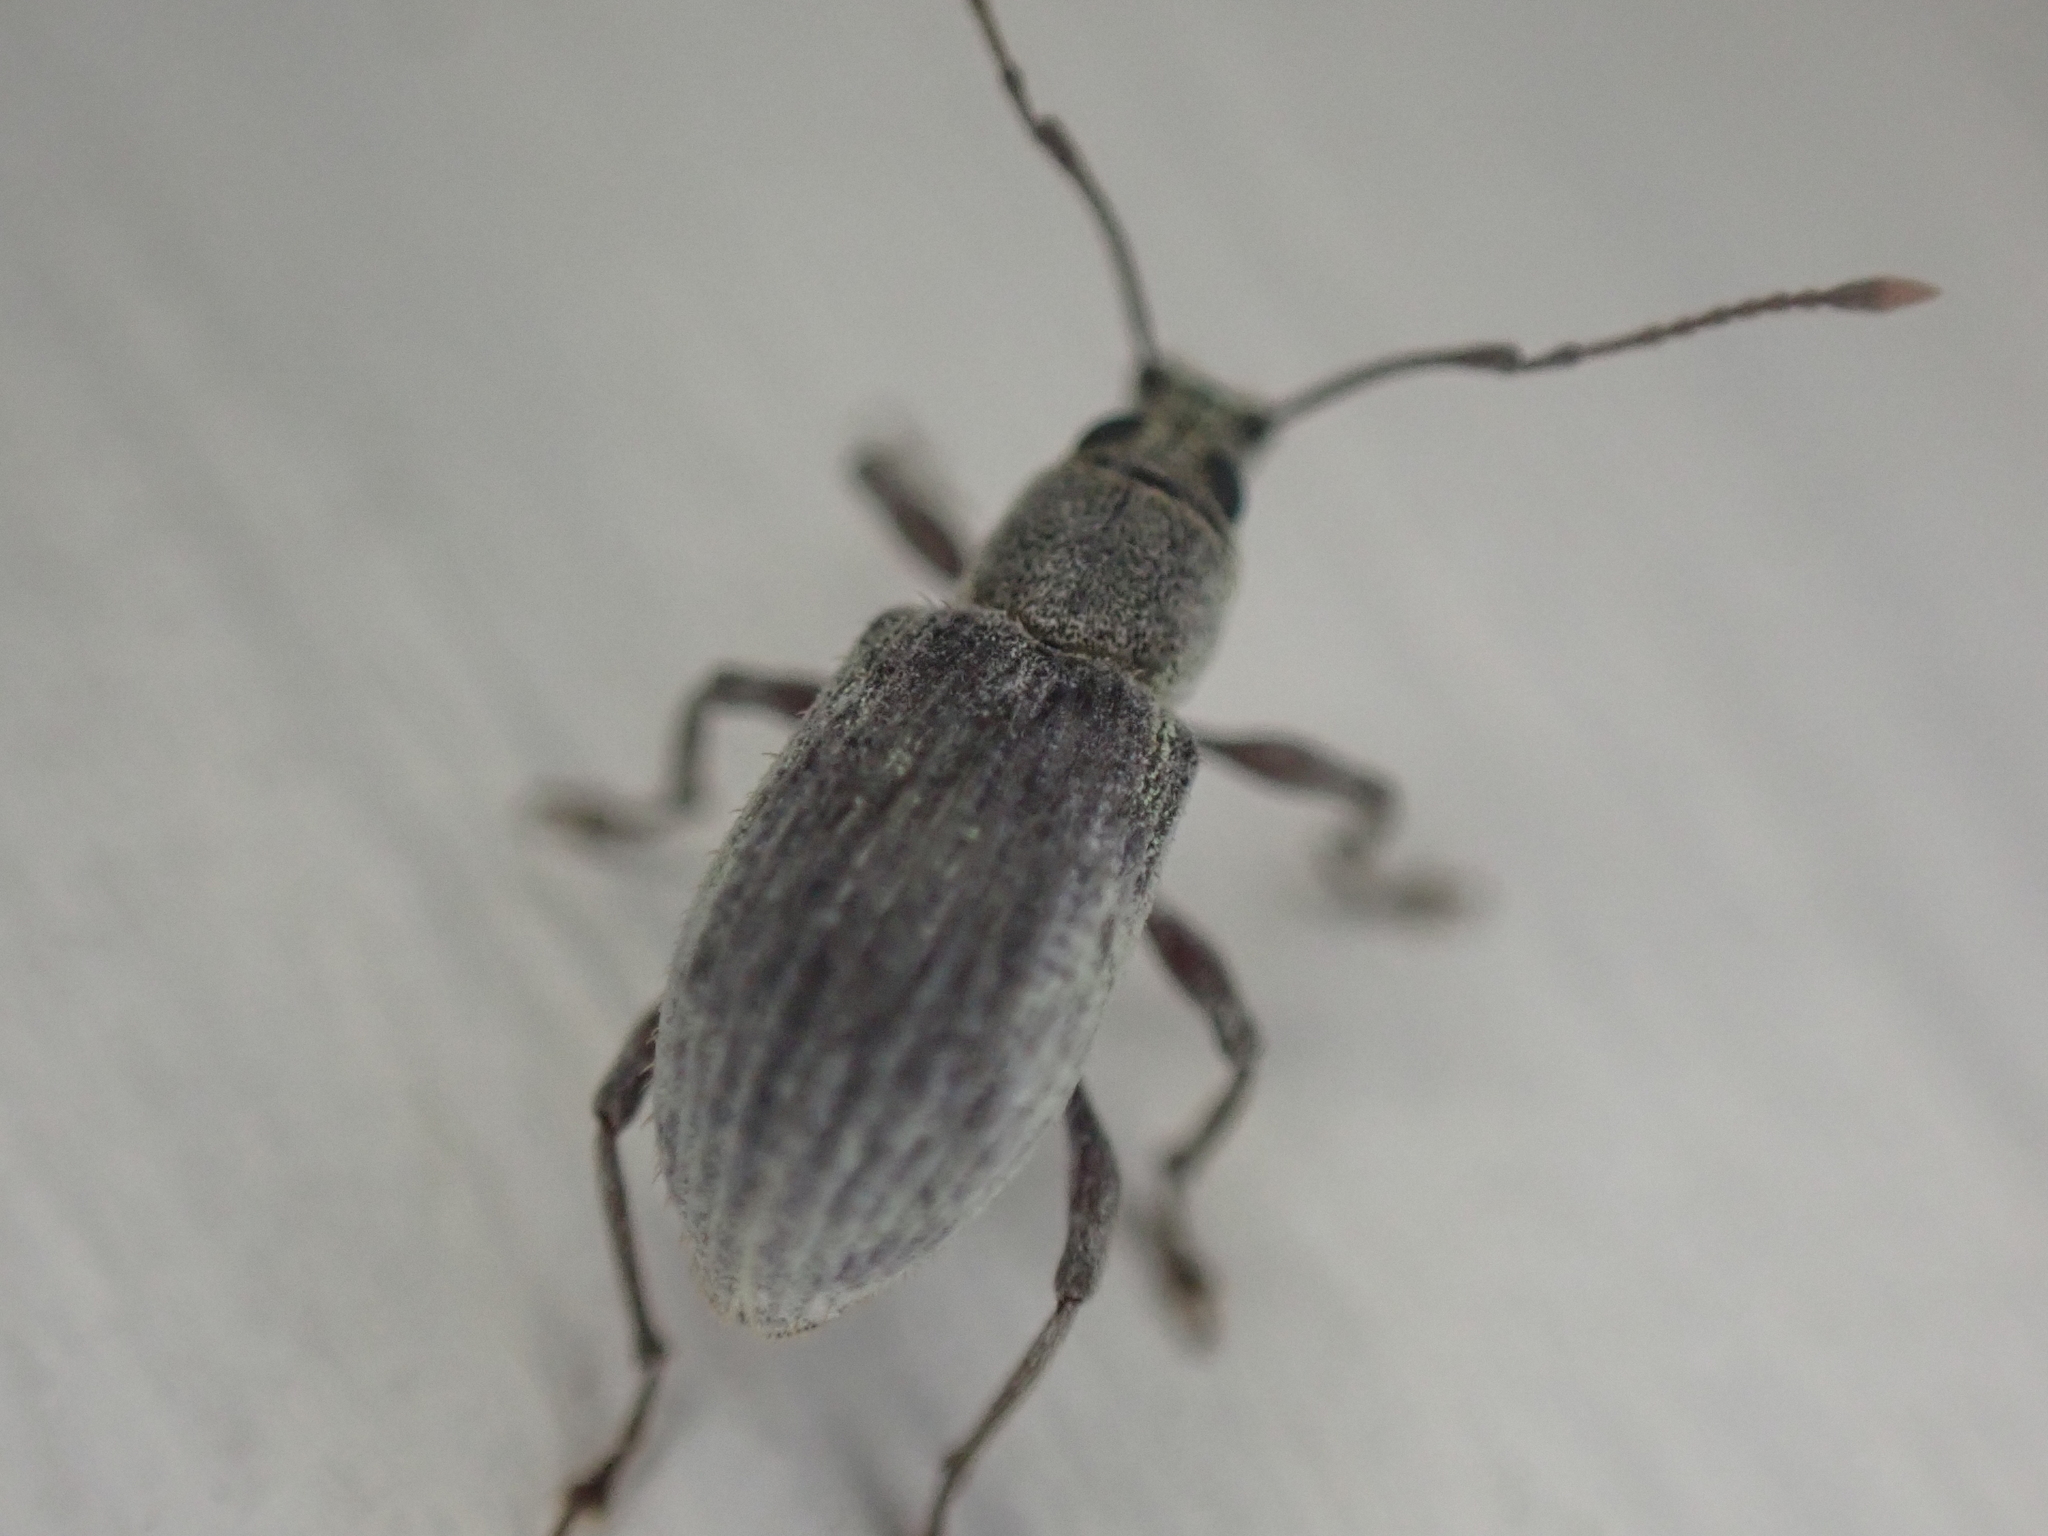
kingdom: Animalia
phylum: Arthropoda
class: Insecta
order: Coleoptera
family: Curculionidae
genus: Cyrtepistomus
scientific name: Cyrtepistomus castaneus
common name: Weevil
